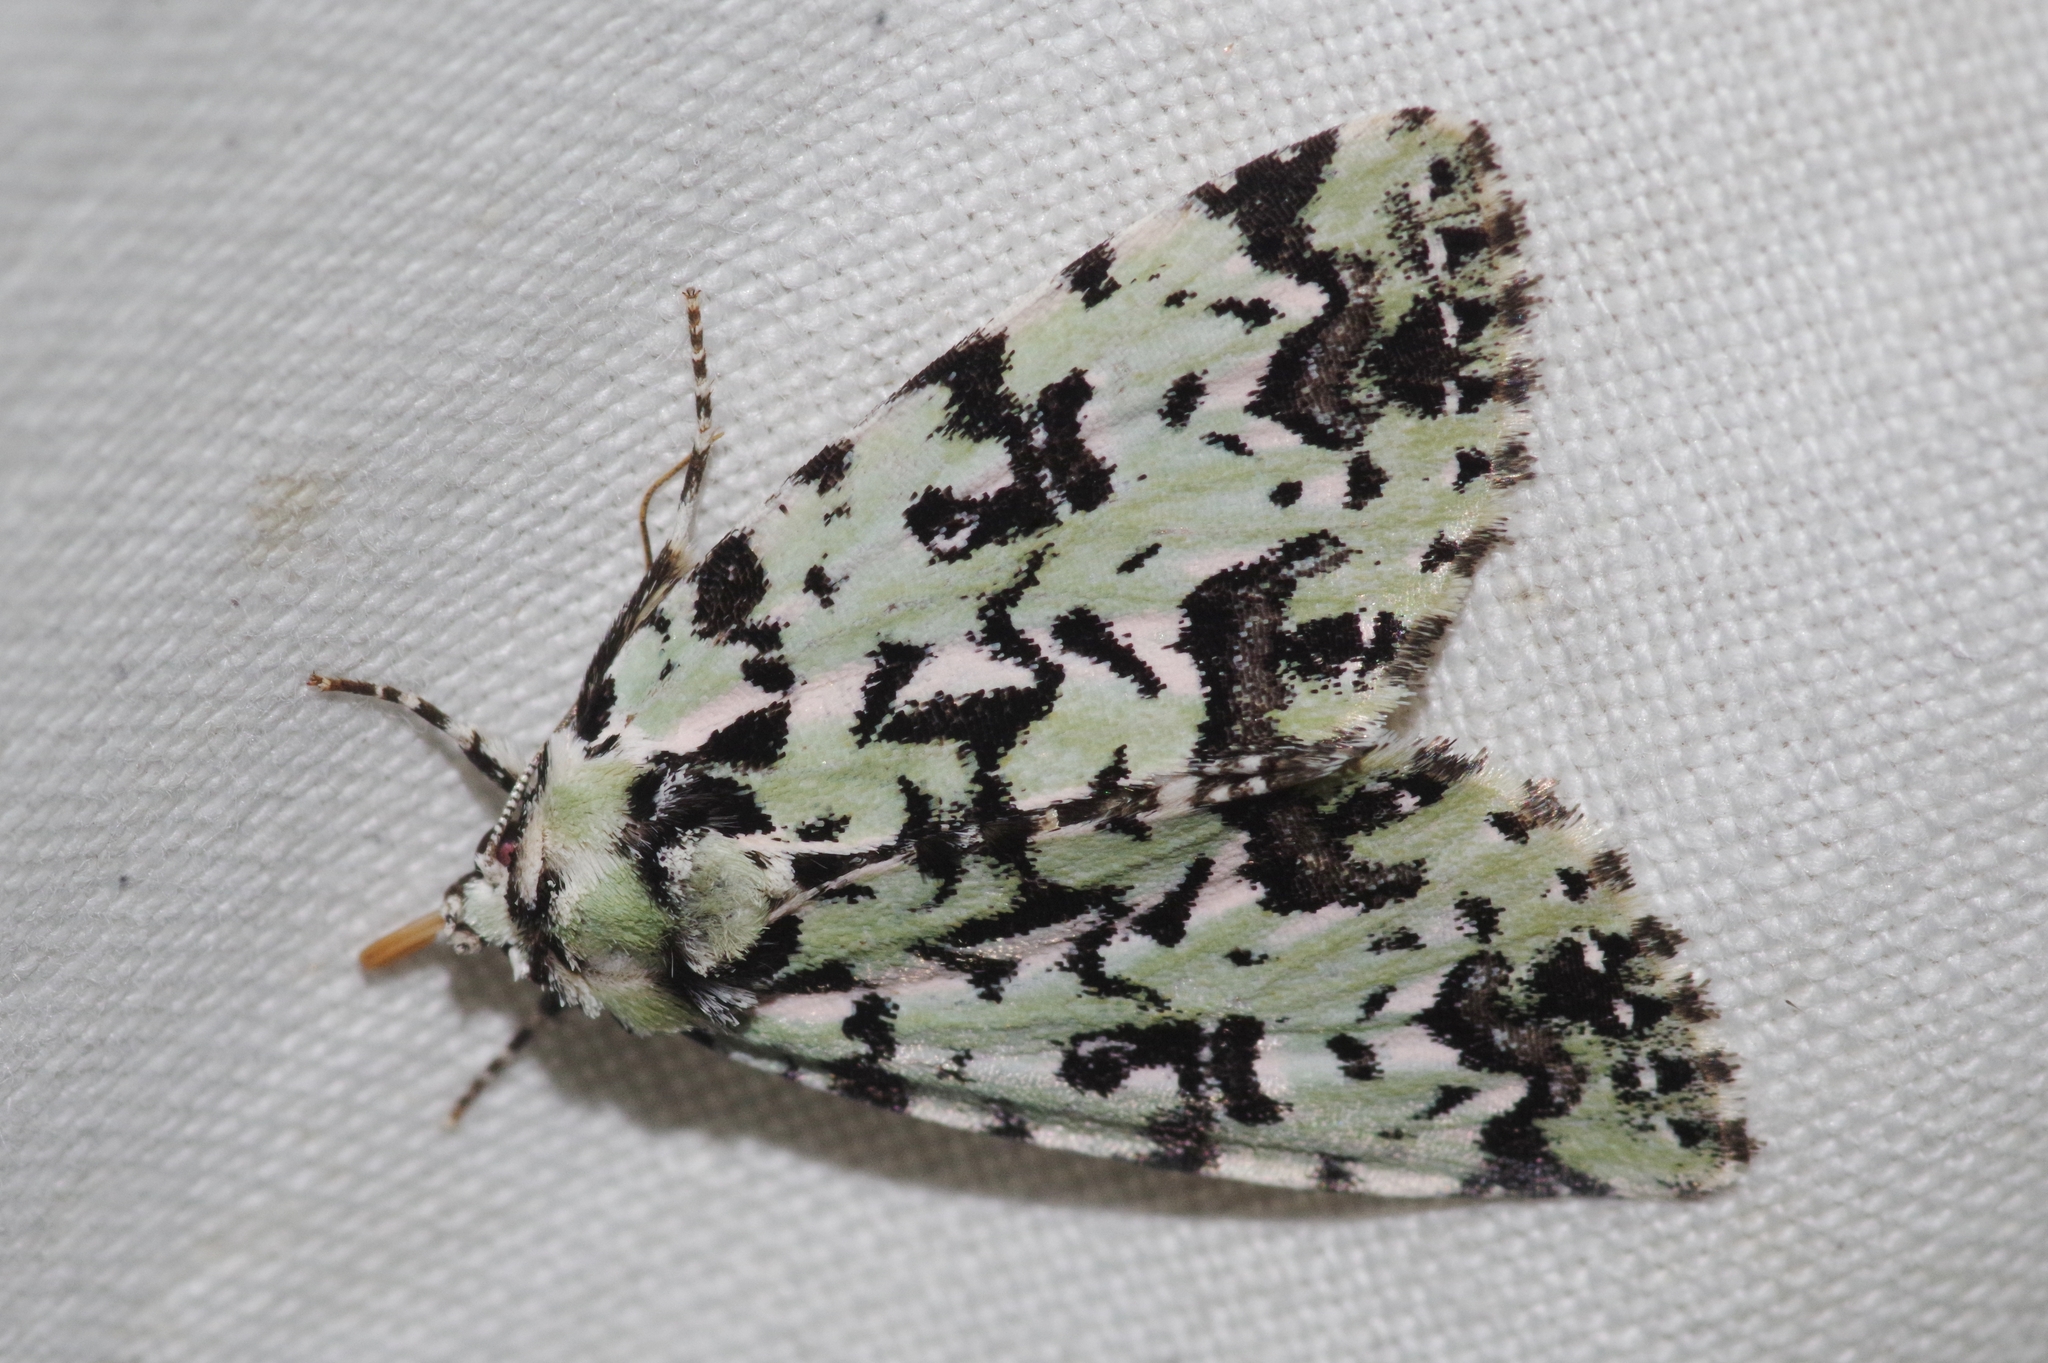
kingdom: Animalia
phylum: Arthropoda
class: Insecta
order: Lepidoptera
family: Noctuidae
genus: Moma
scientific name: Moma alpium
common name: Scarce merveille du jour
